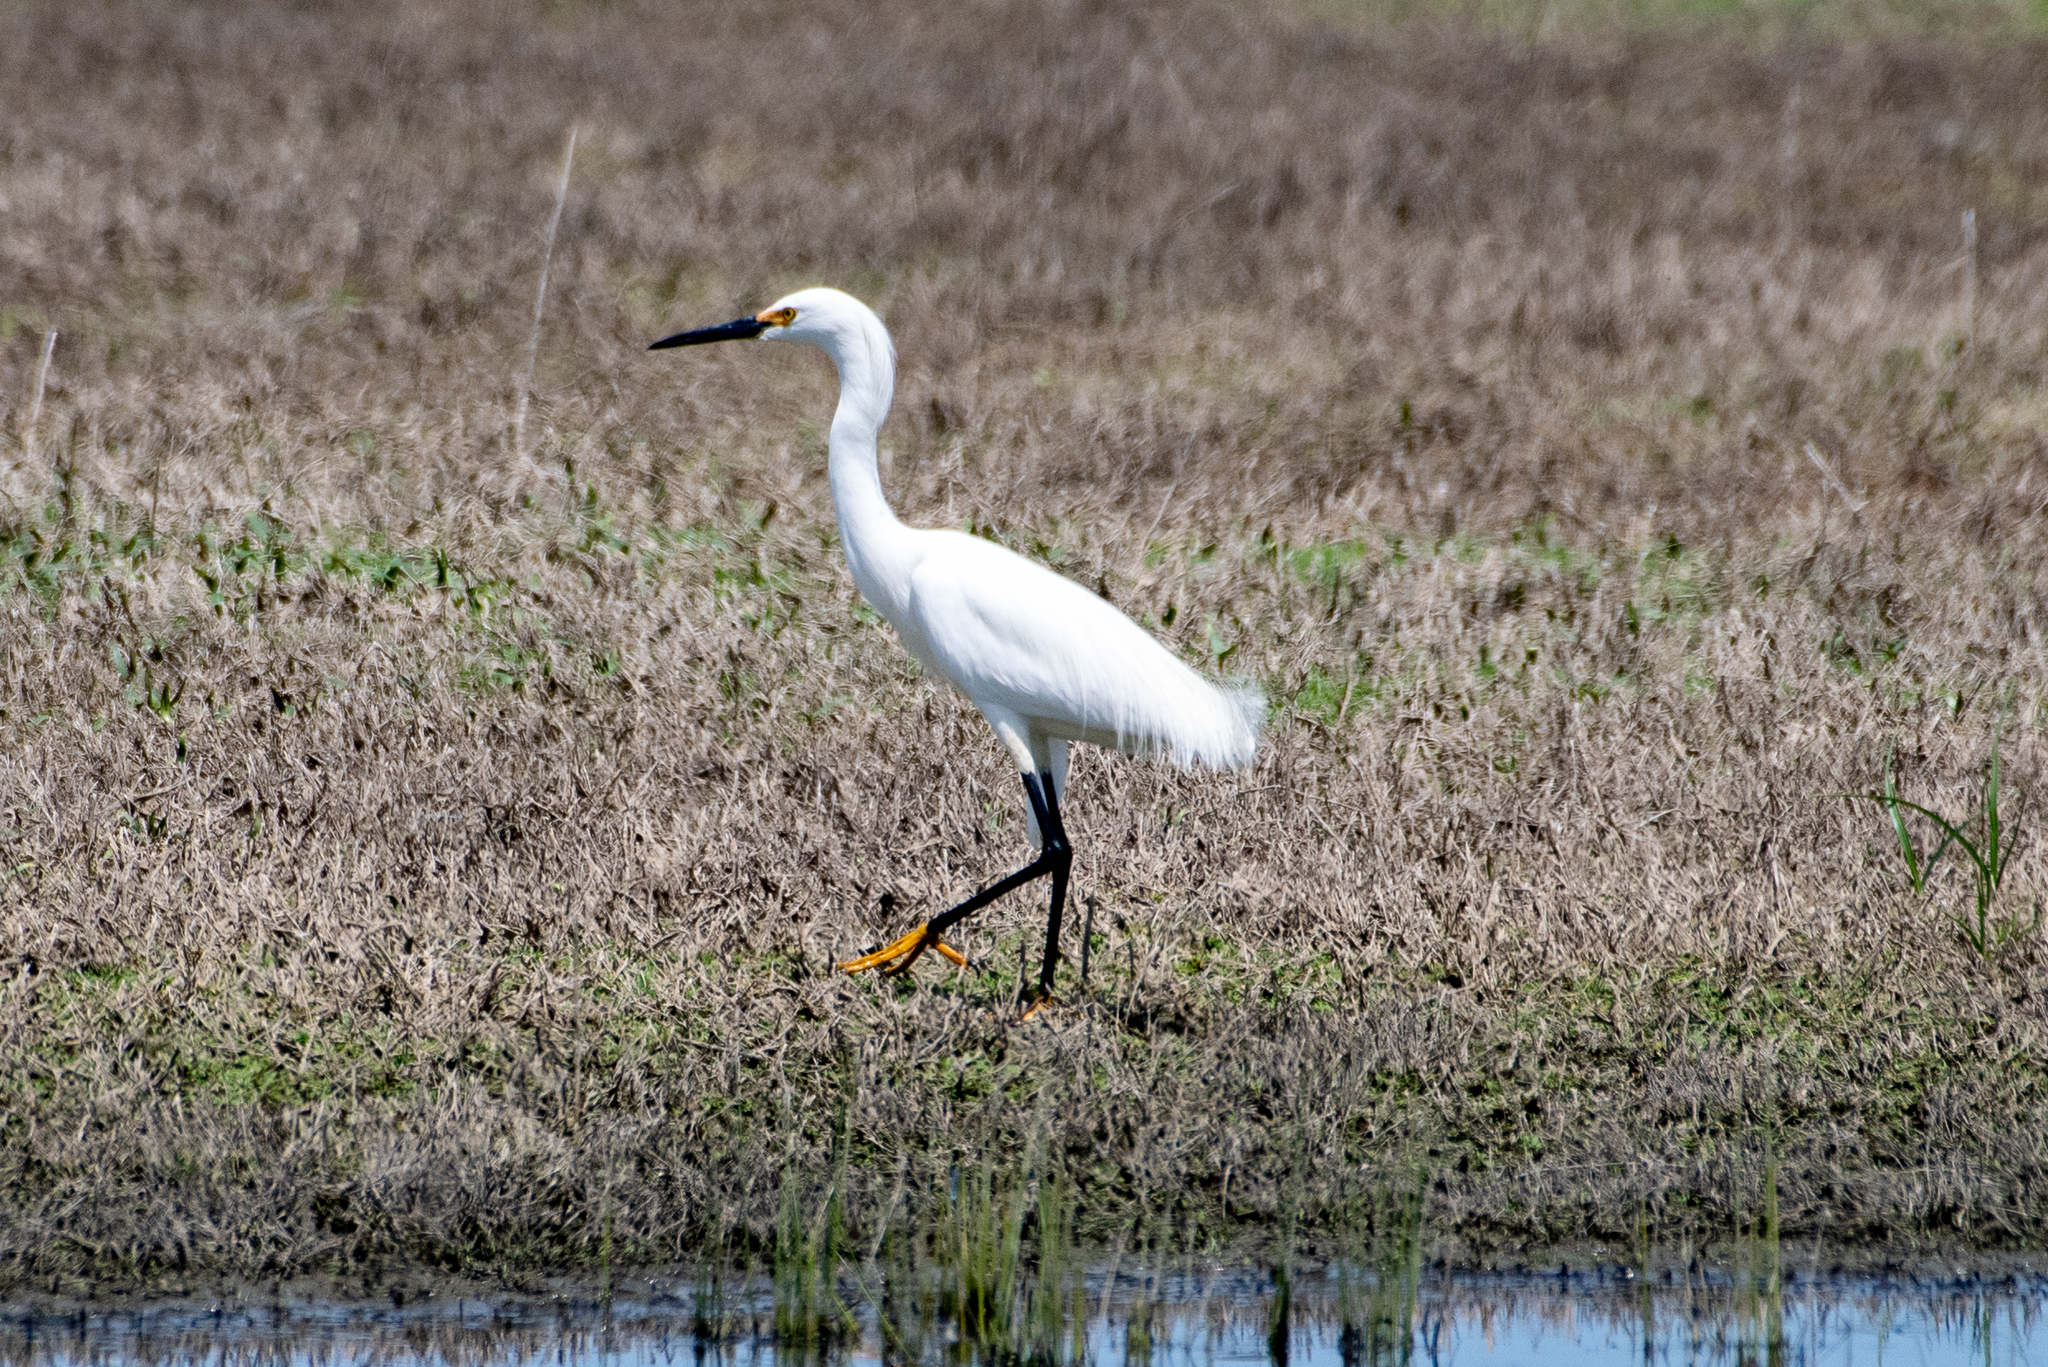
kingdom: Animalia
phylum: Chordata
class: Aves
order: Pelecaniformes
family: Ardeidae
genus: Egretta
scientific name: Egretta thula
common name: Snowy egret
